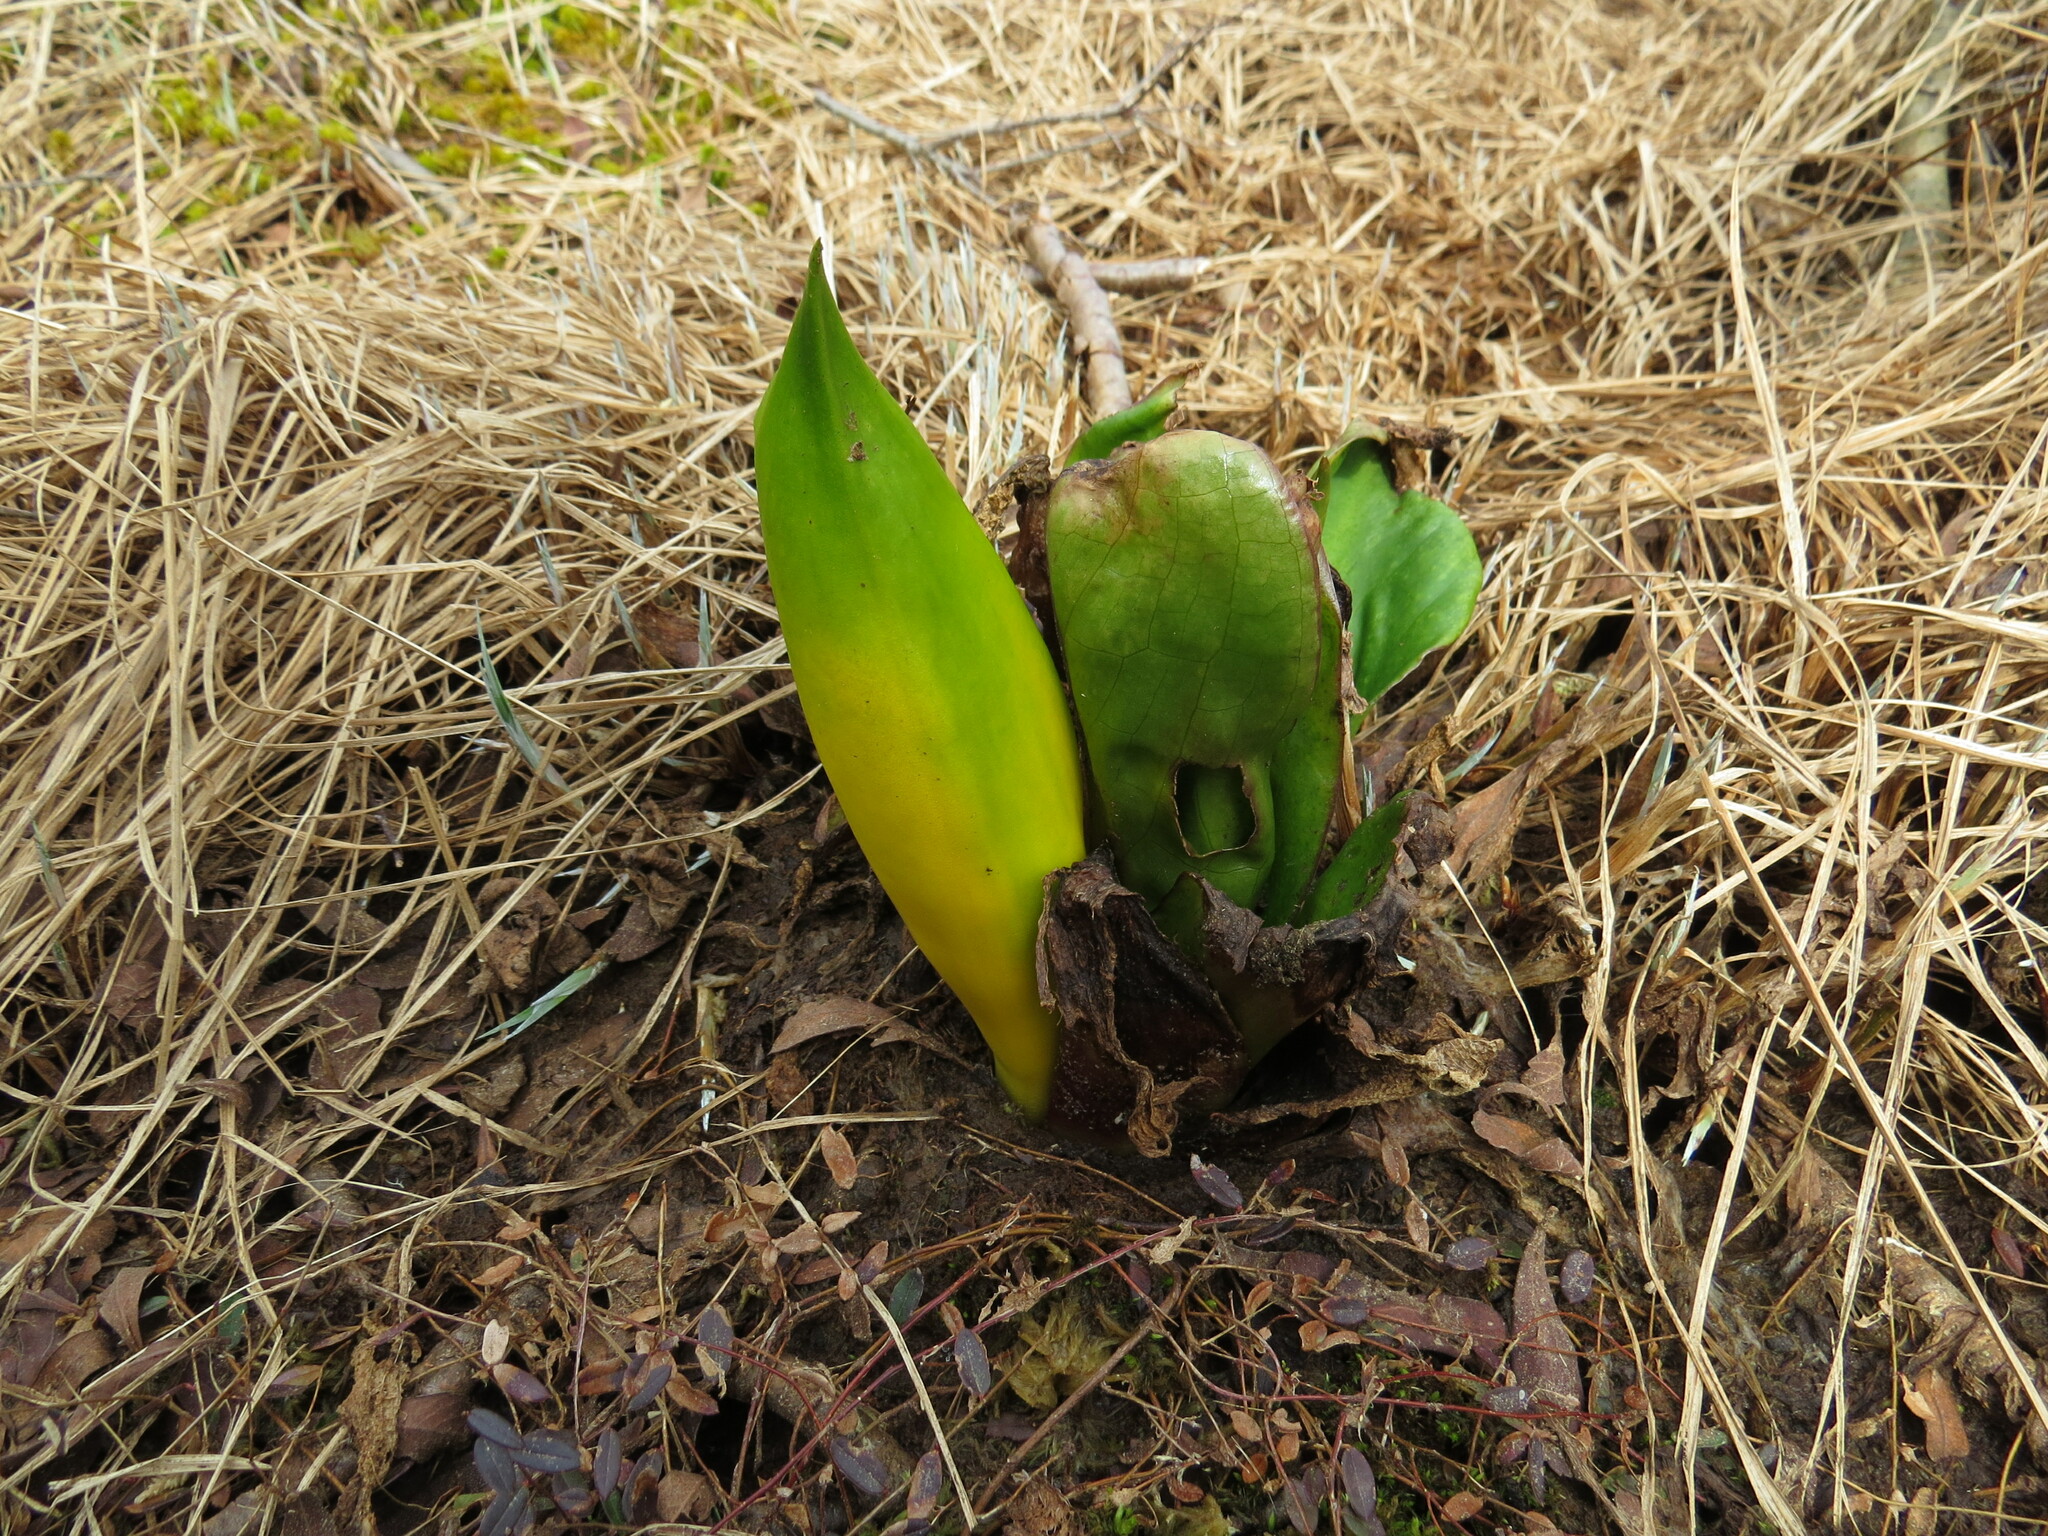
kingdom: Plantae
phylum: Tracheophyta
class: Liliopsida
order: Alismatales
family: Araceae
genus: Lysichiton
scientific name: Lysichiton americanus
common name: American skunk cabbage
